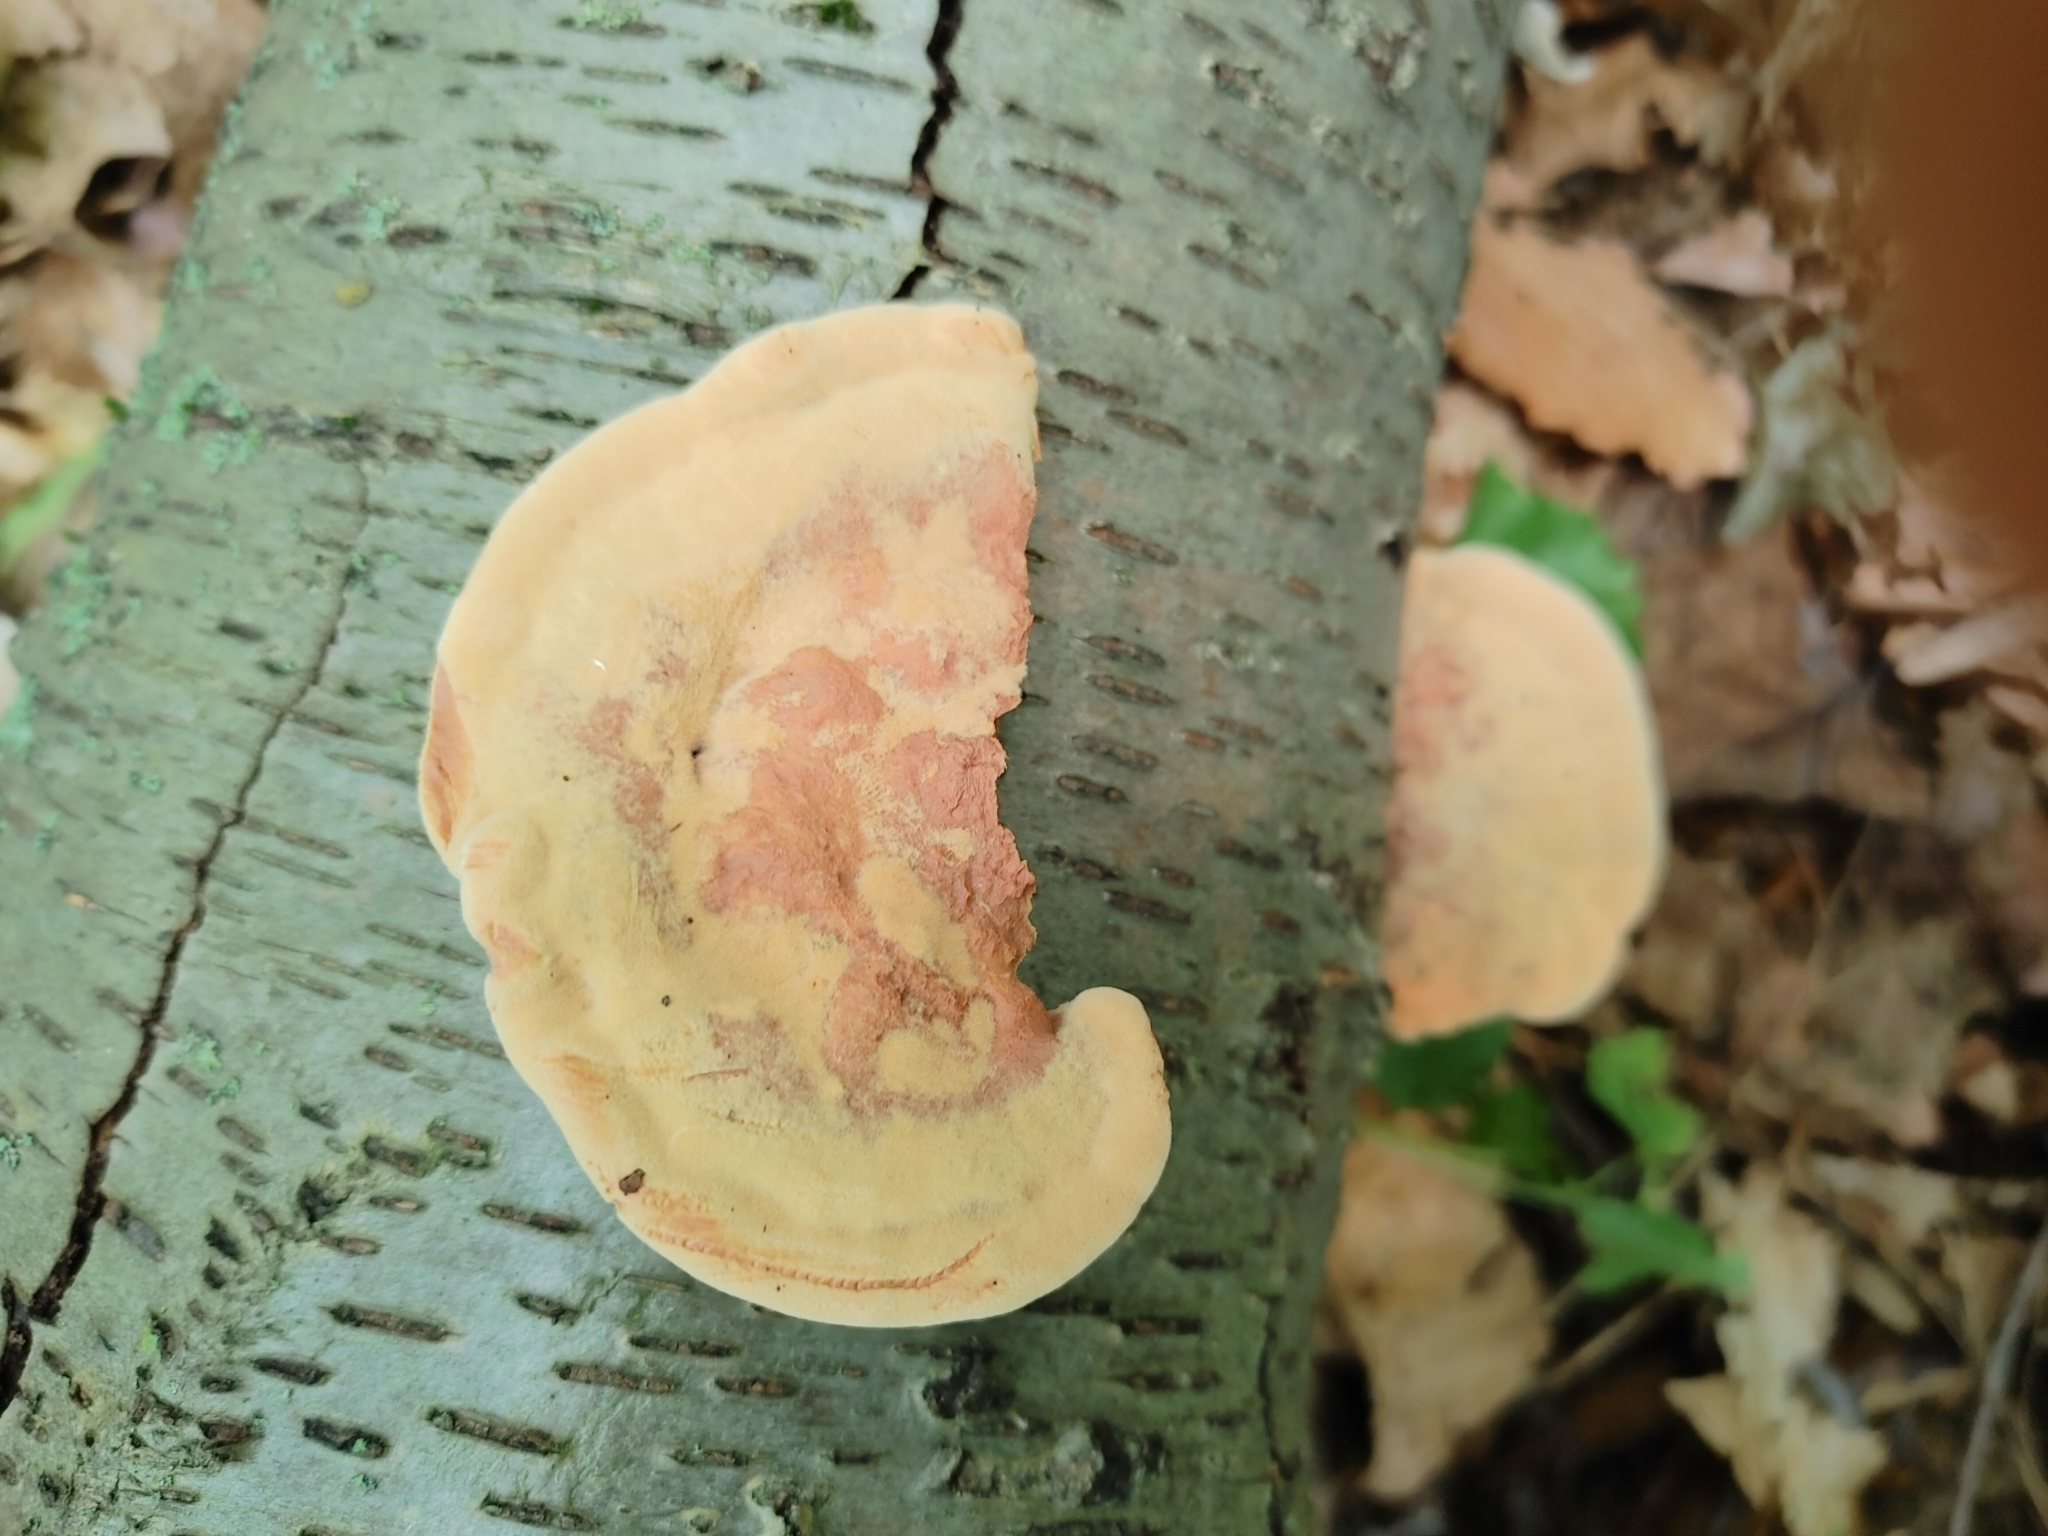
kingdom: Fungi
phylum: Basidiomycota
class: Agaricomycetes
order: Polyporales
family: Phanerochaetaceae
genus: Hapalopilus
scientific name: Hapalopilus rutilans
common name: Tender nesting polypore
